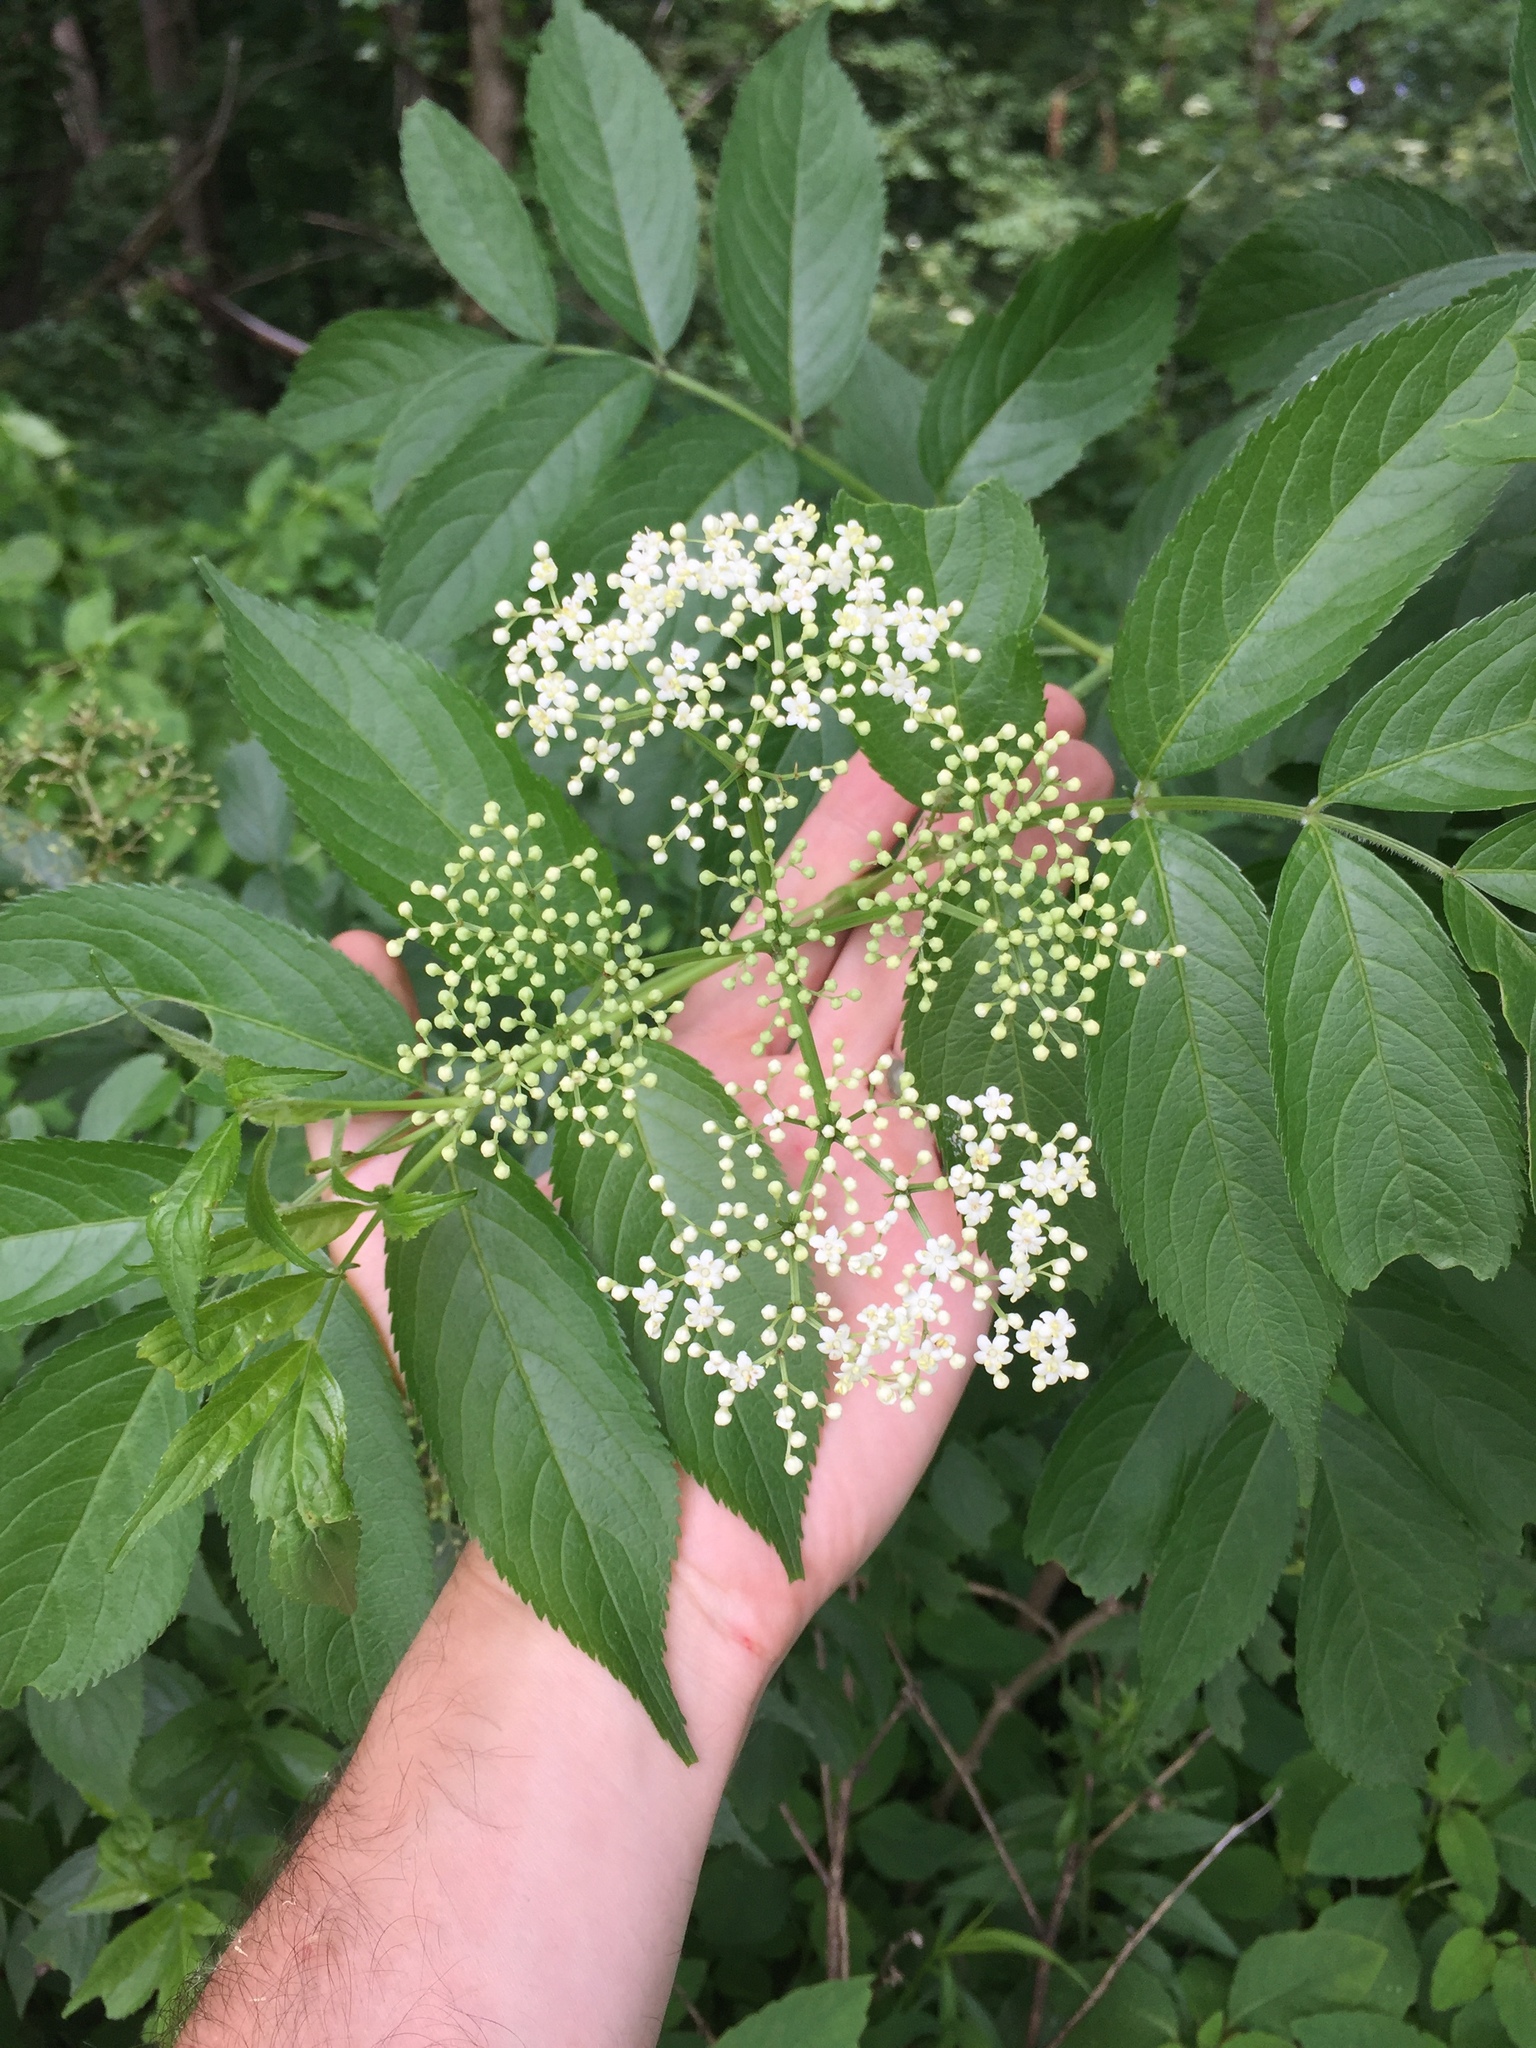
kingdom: Plantae
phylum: Tracheophyta
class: Magnoliopsida
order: Dipsacales
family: Viburnaceae
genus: Sambucus
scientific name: Sambucus canadensis
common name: American elder
